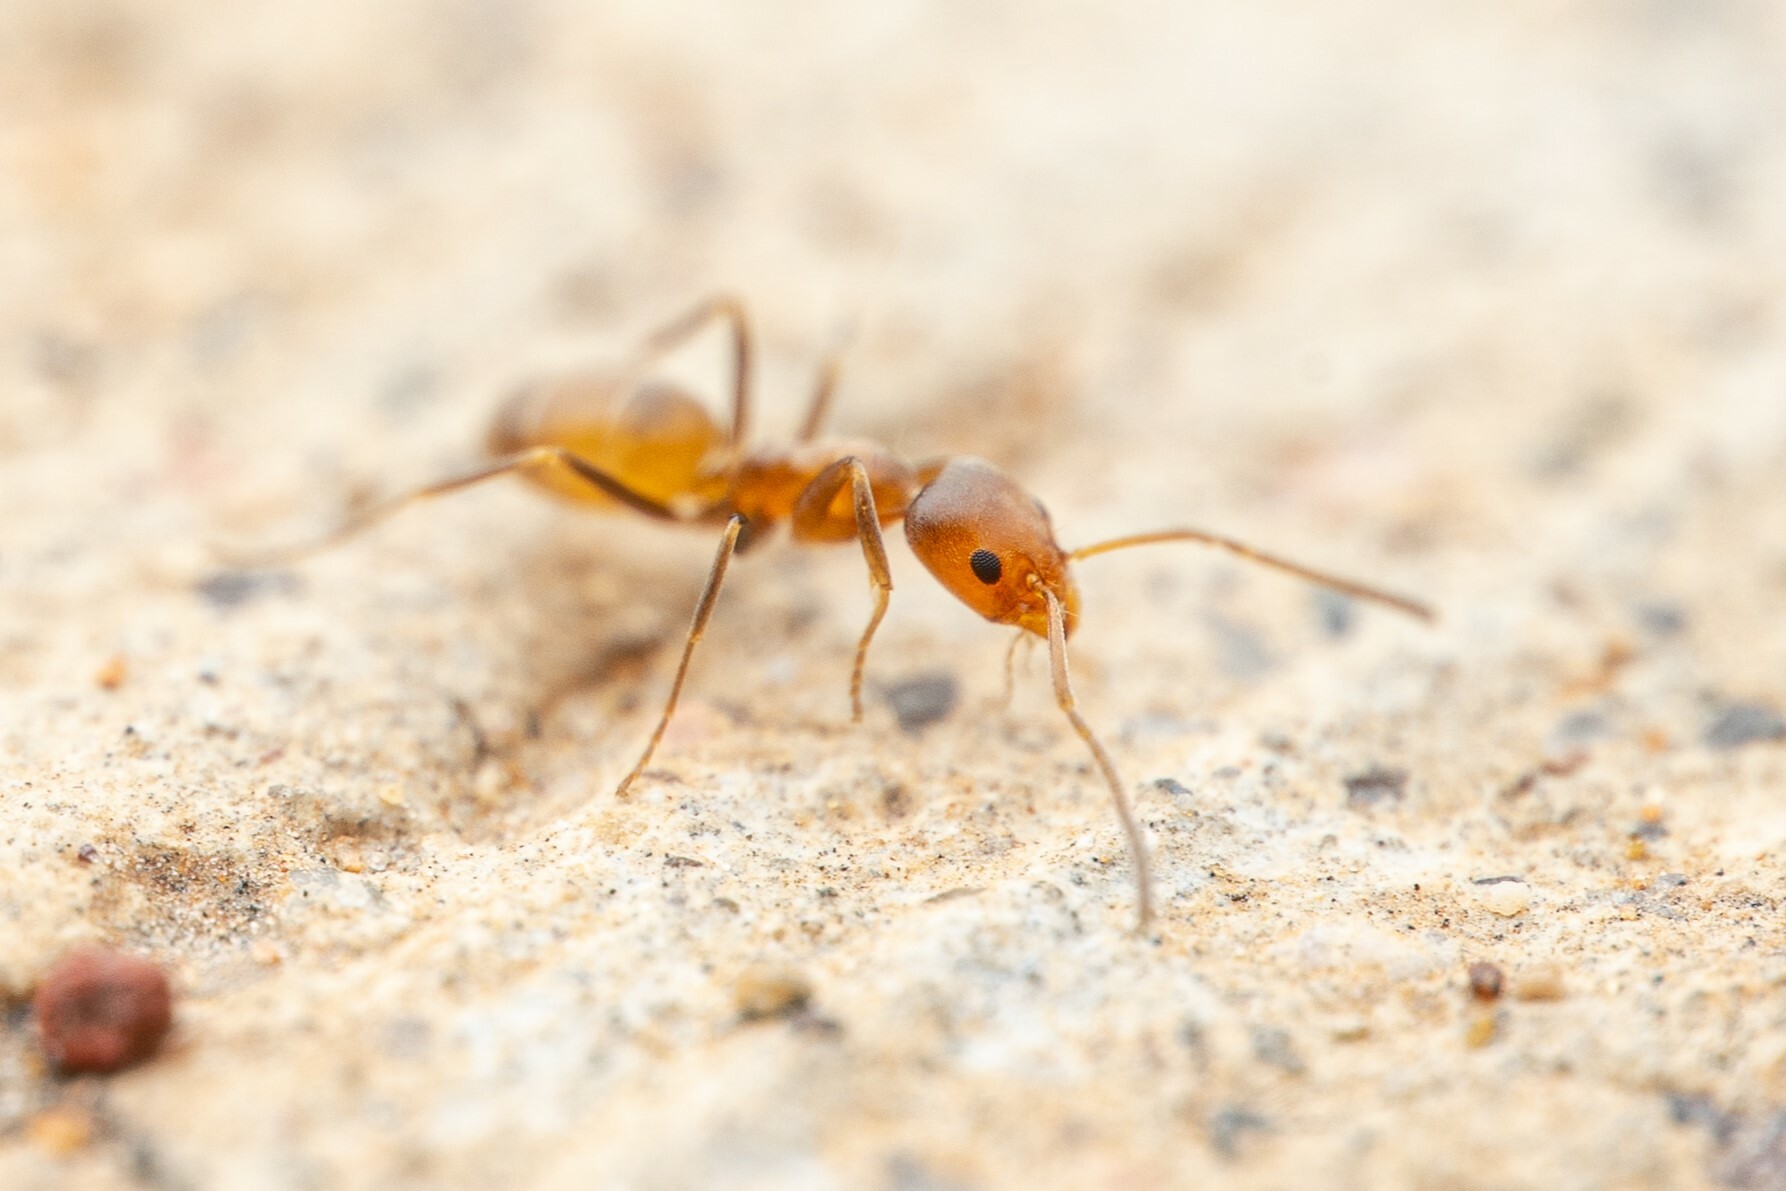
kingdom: Animalia
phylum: Arthropoda
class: Insecta
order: Hymenoptera
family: Formicidae
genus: Forelius
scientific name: Forelius pruinosus
